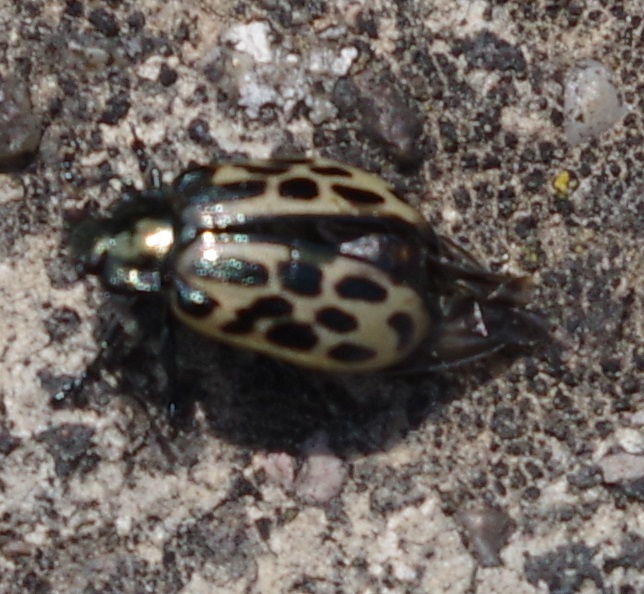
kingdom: Animalia
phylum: Arthropoda
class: Insecta
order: Coleoptera
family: Chrysomelidae
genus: Chrysomela
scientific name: Chrysomela vigintipunctata
